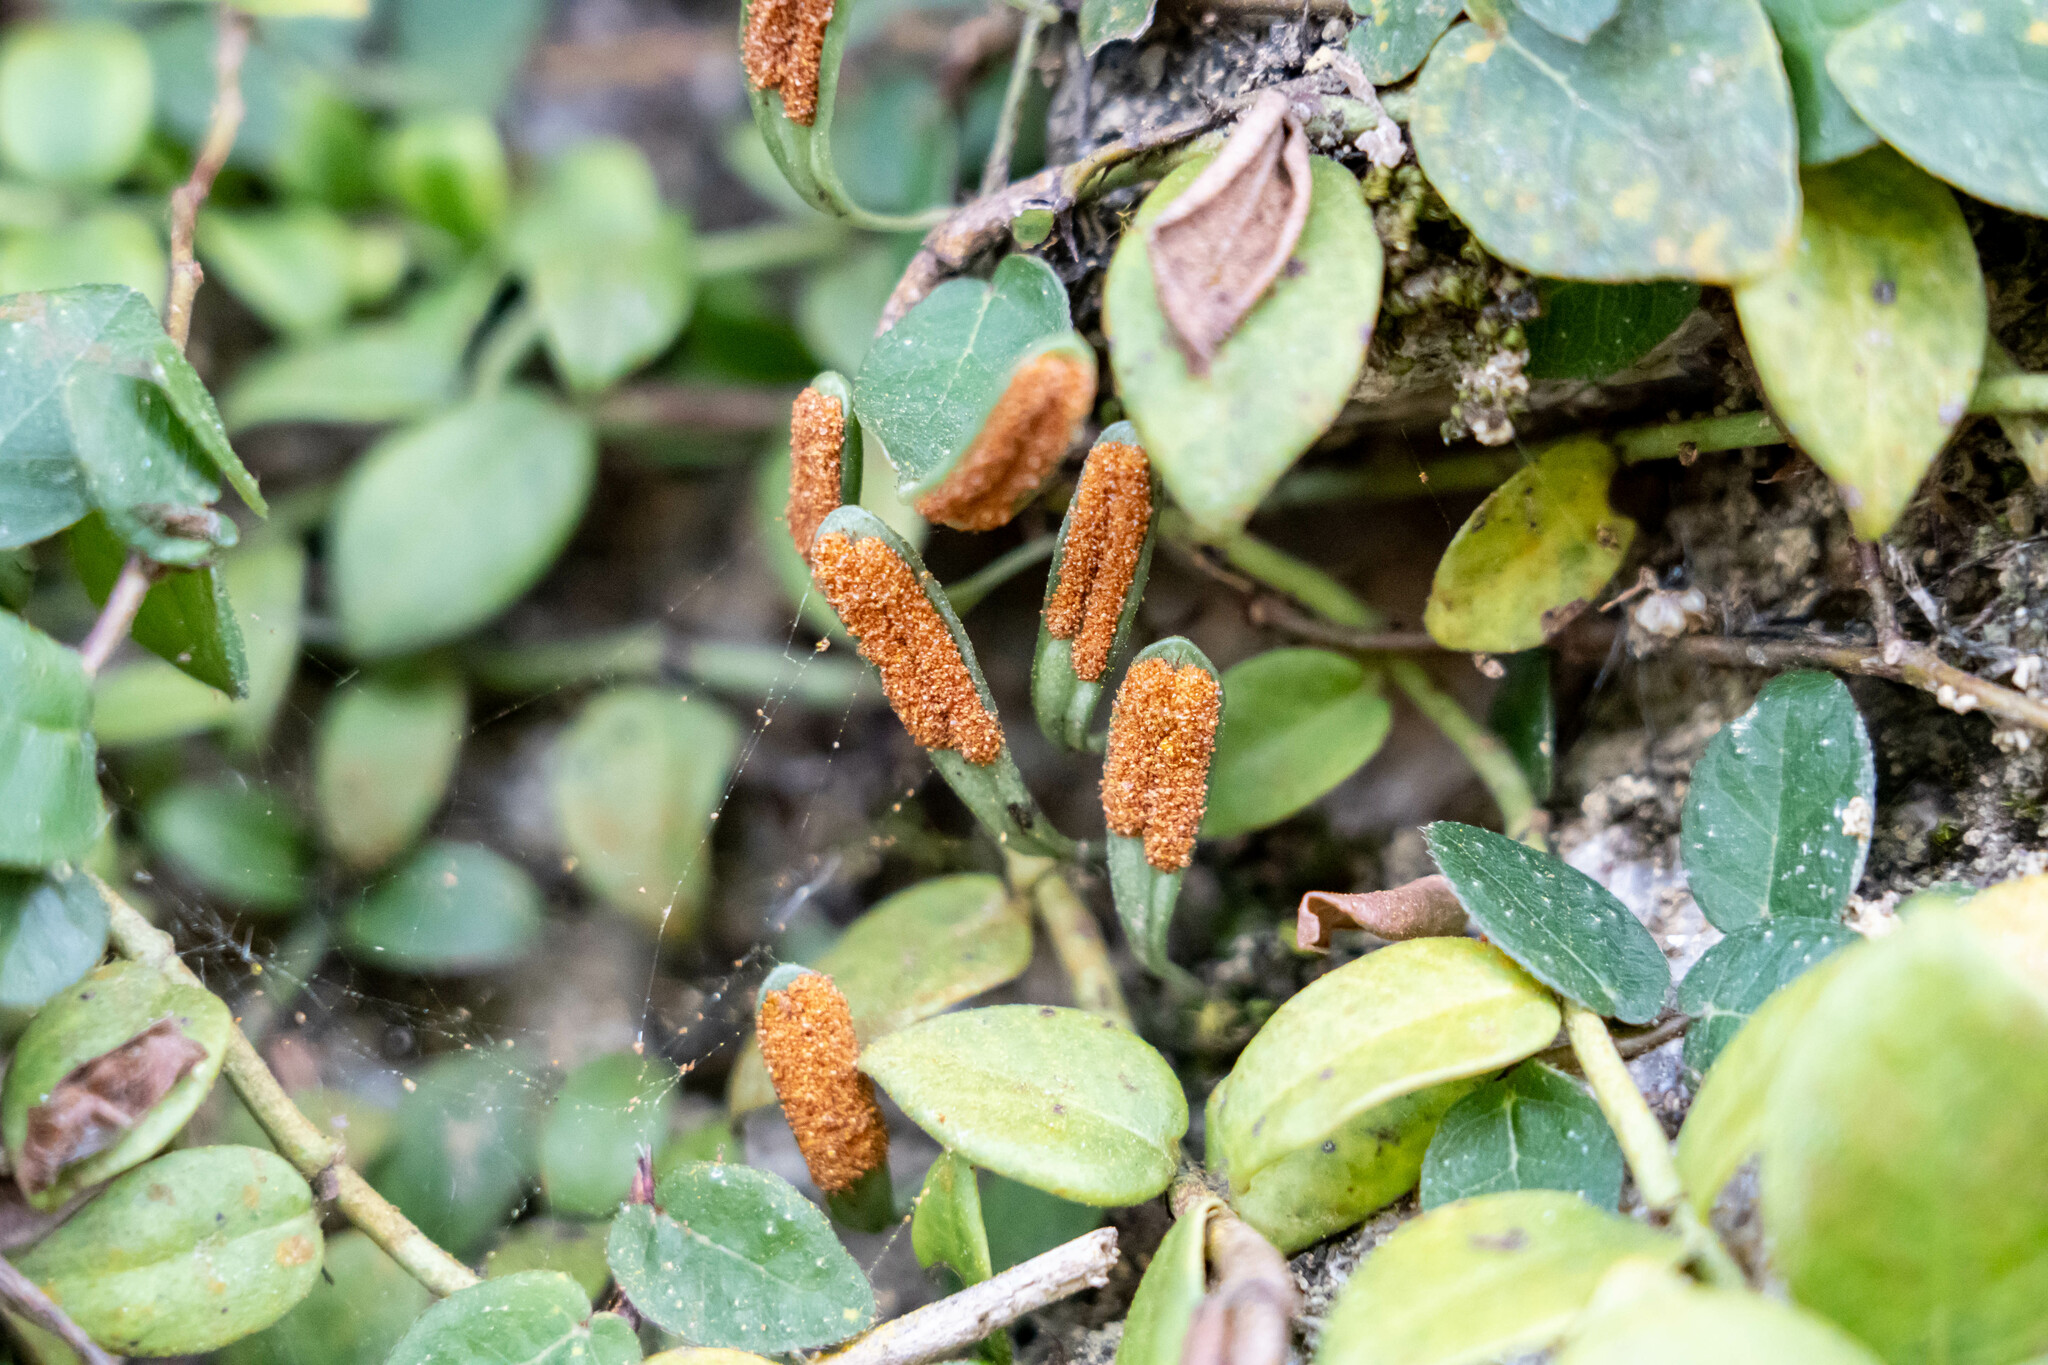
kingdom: Plantae
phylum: Tracheophyta
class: Polypodiopsida
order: Polypodiales
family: Polypodiaceae
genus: Lepisorus
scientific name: Lepisorus microphyllus
